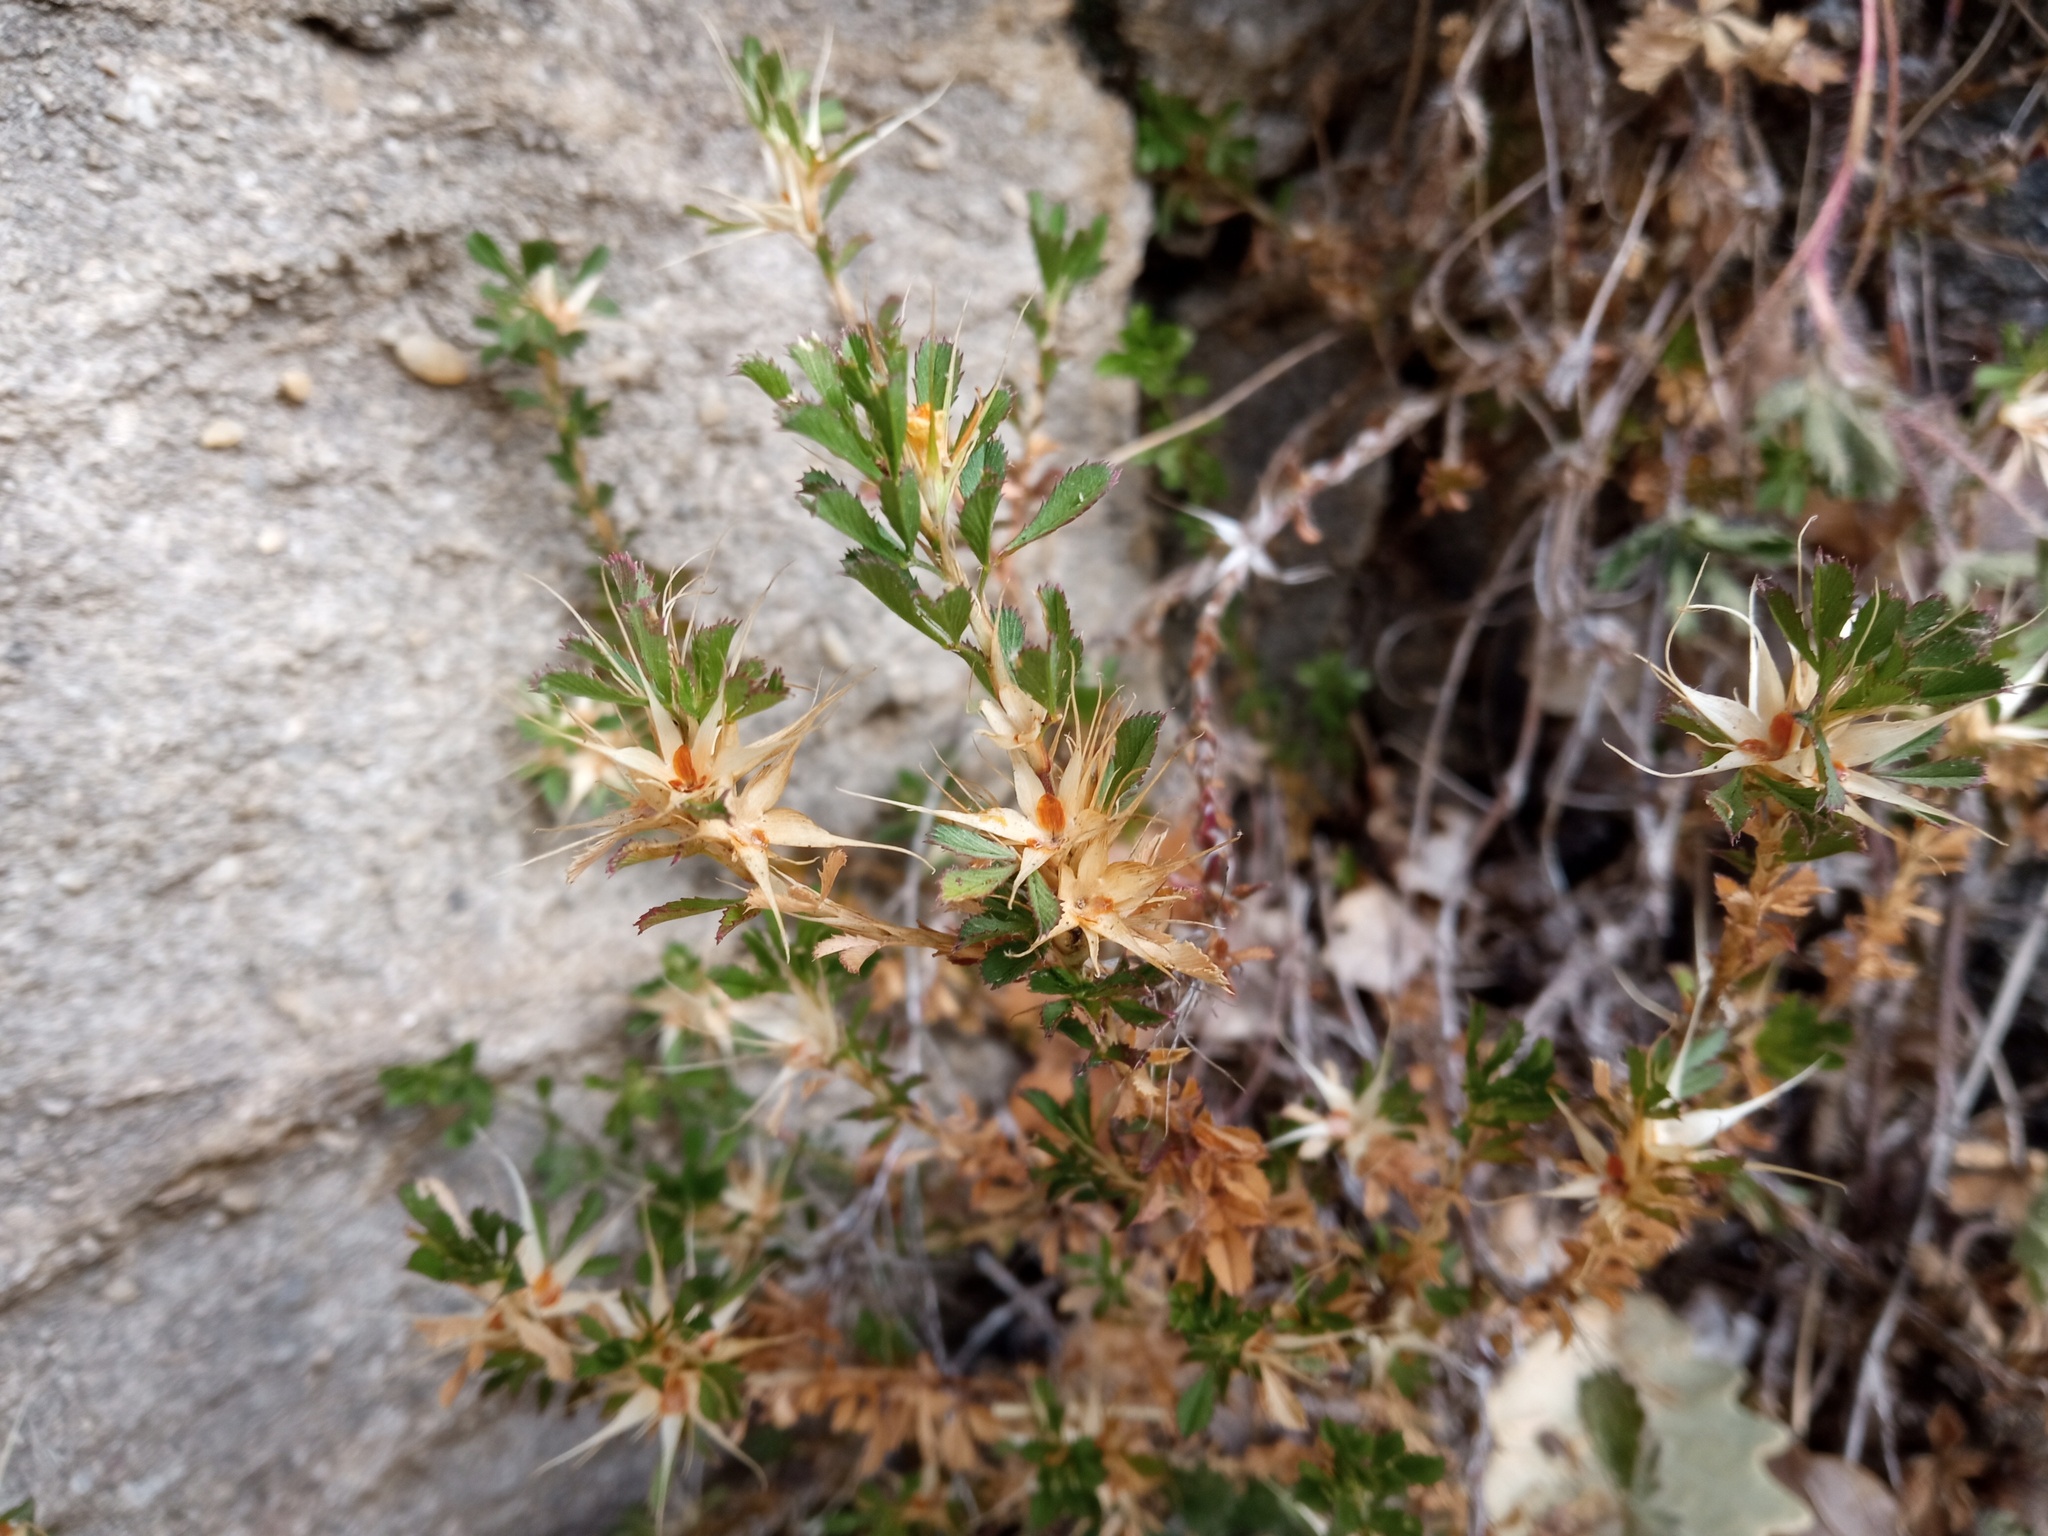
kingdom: Plantae
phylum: Tracheophyta
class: Magnoliopsida
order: Fabales
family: Fabaceae
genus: Ononis
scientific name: Ononis minutissima
